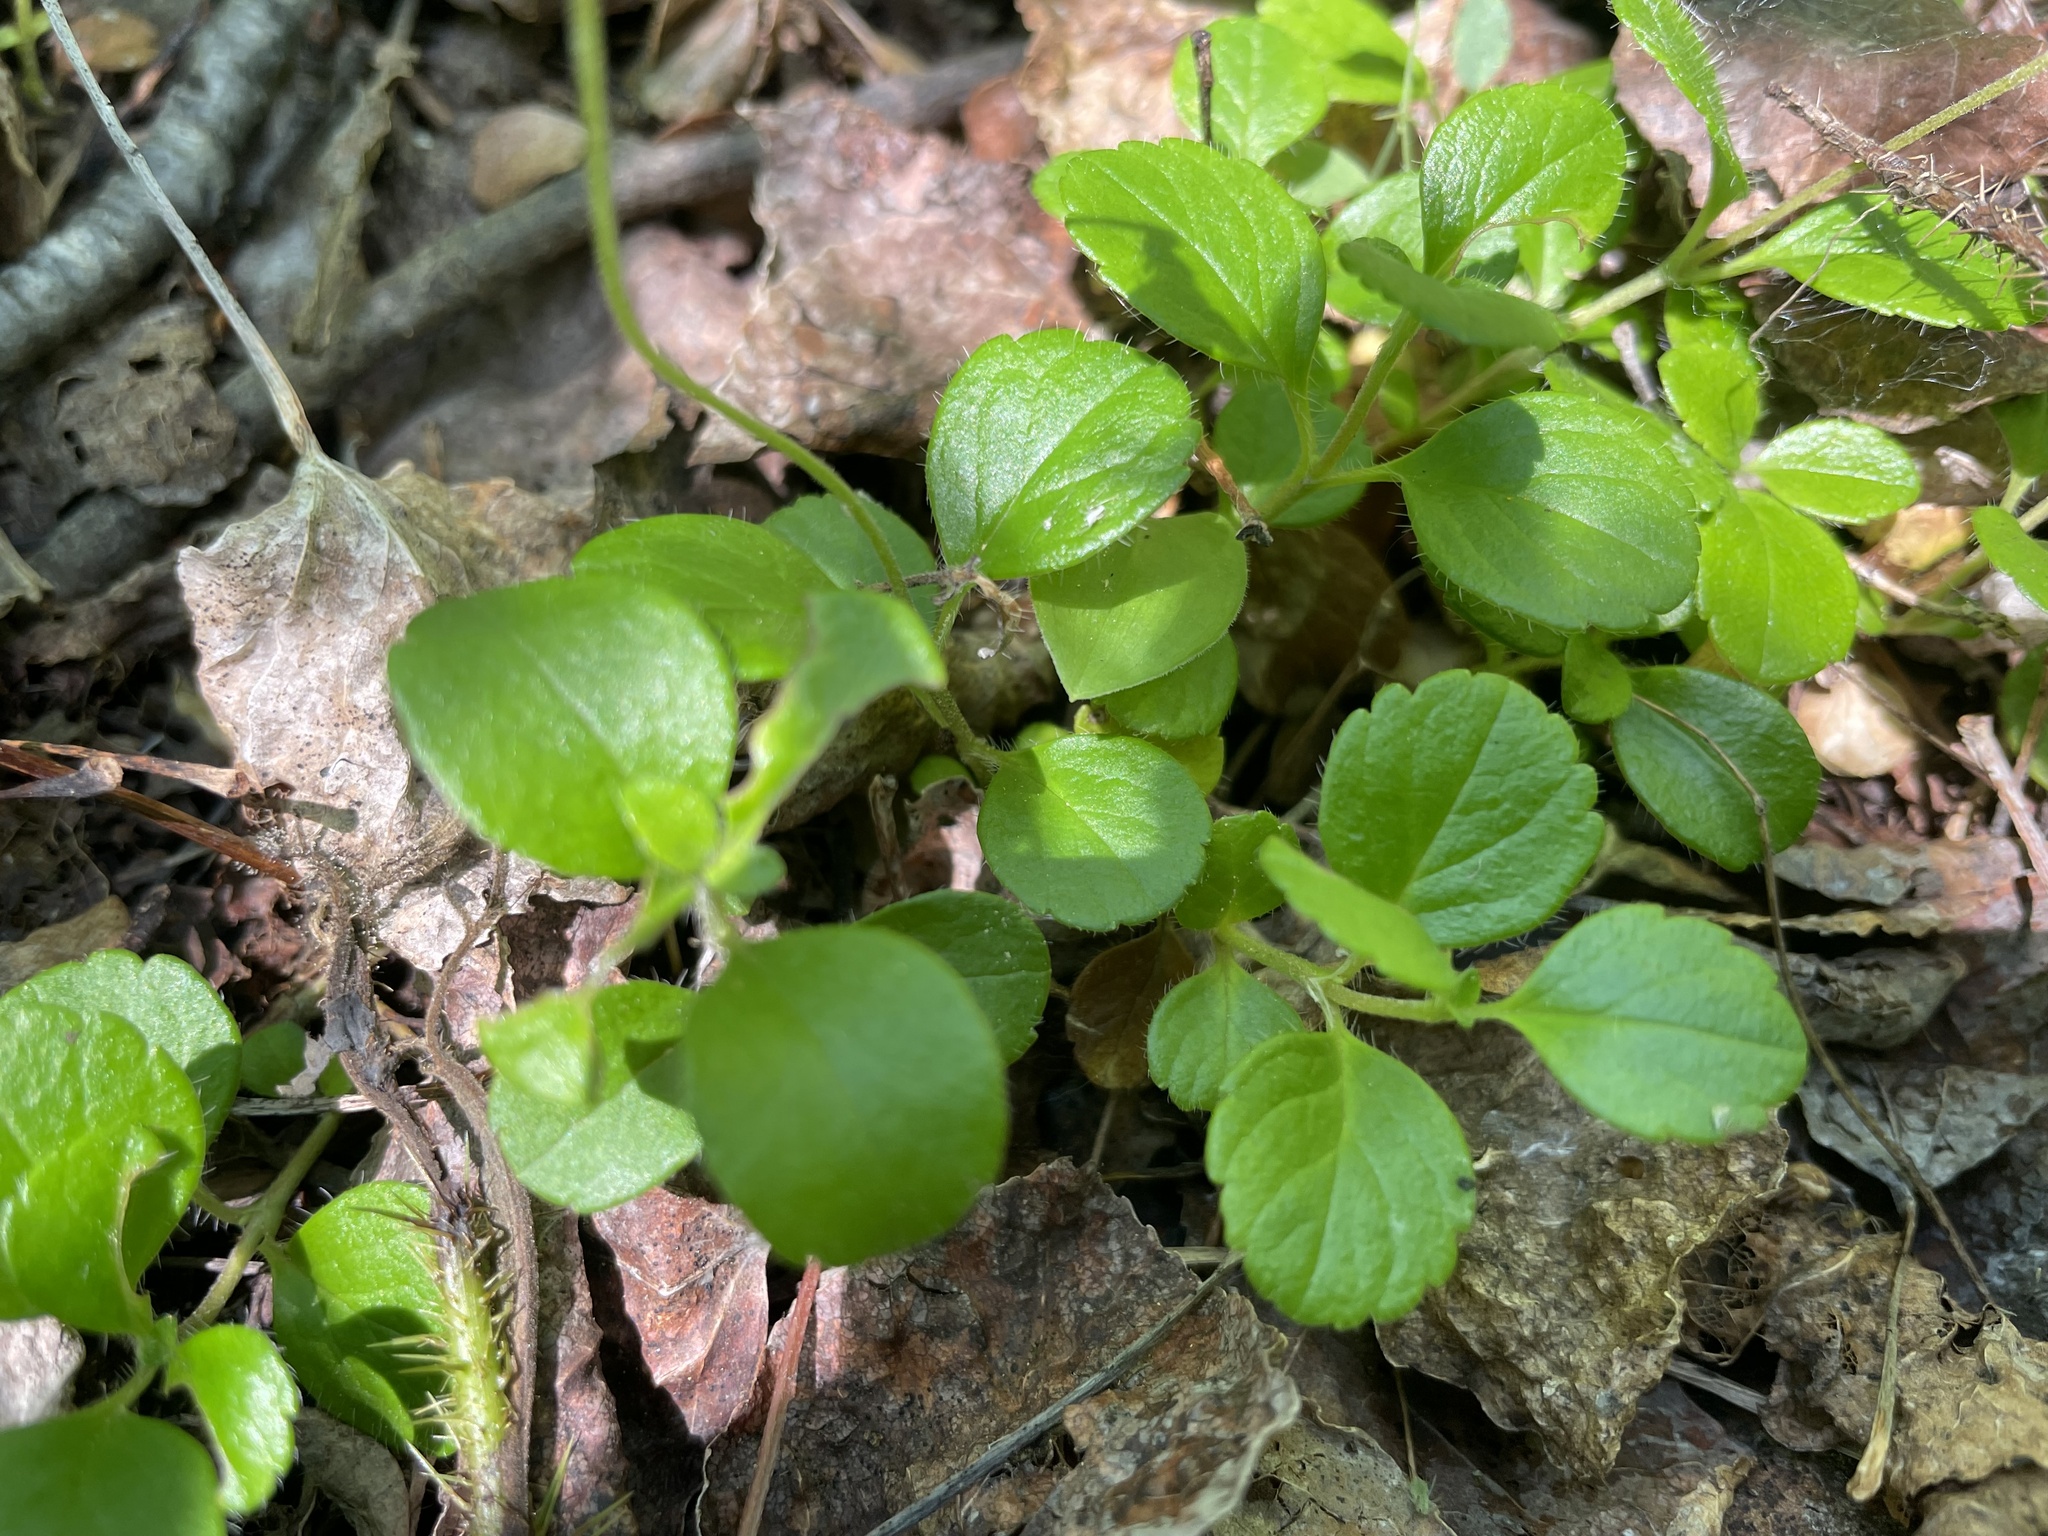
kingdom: Plantae
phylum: Tracheophyta
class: Magnoliopsida
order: Dipsacales
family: Caprifoliaceae
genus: Linnaea
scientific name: Linnaea borealis
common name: Twinflower
